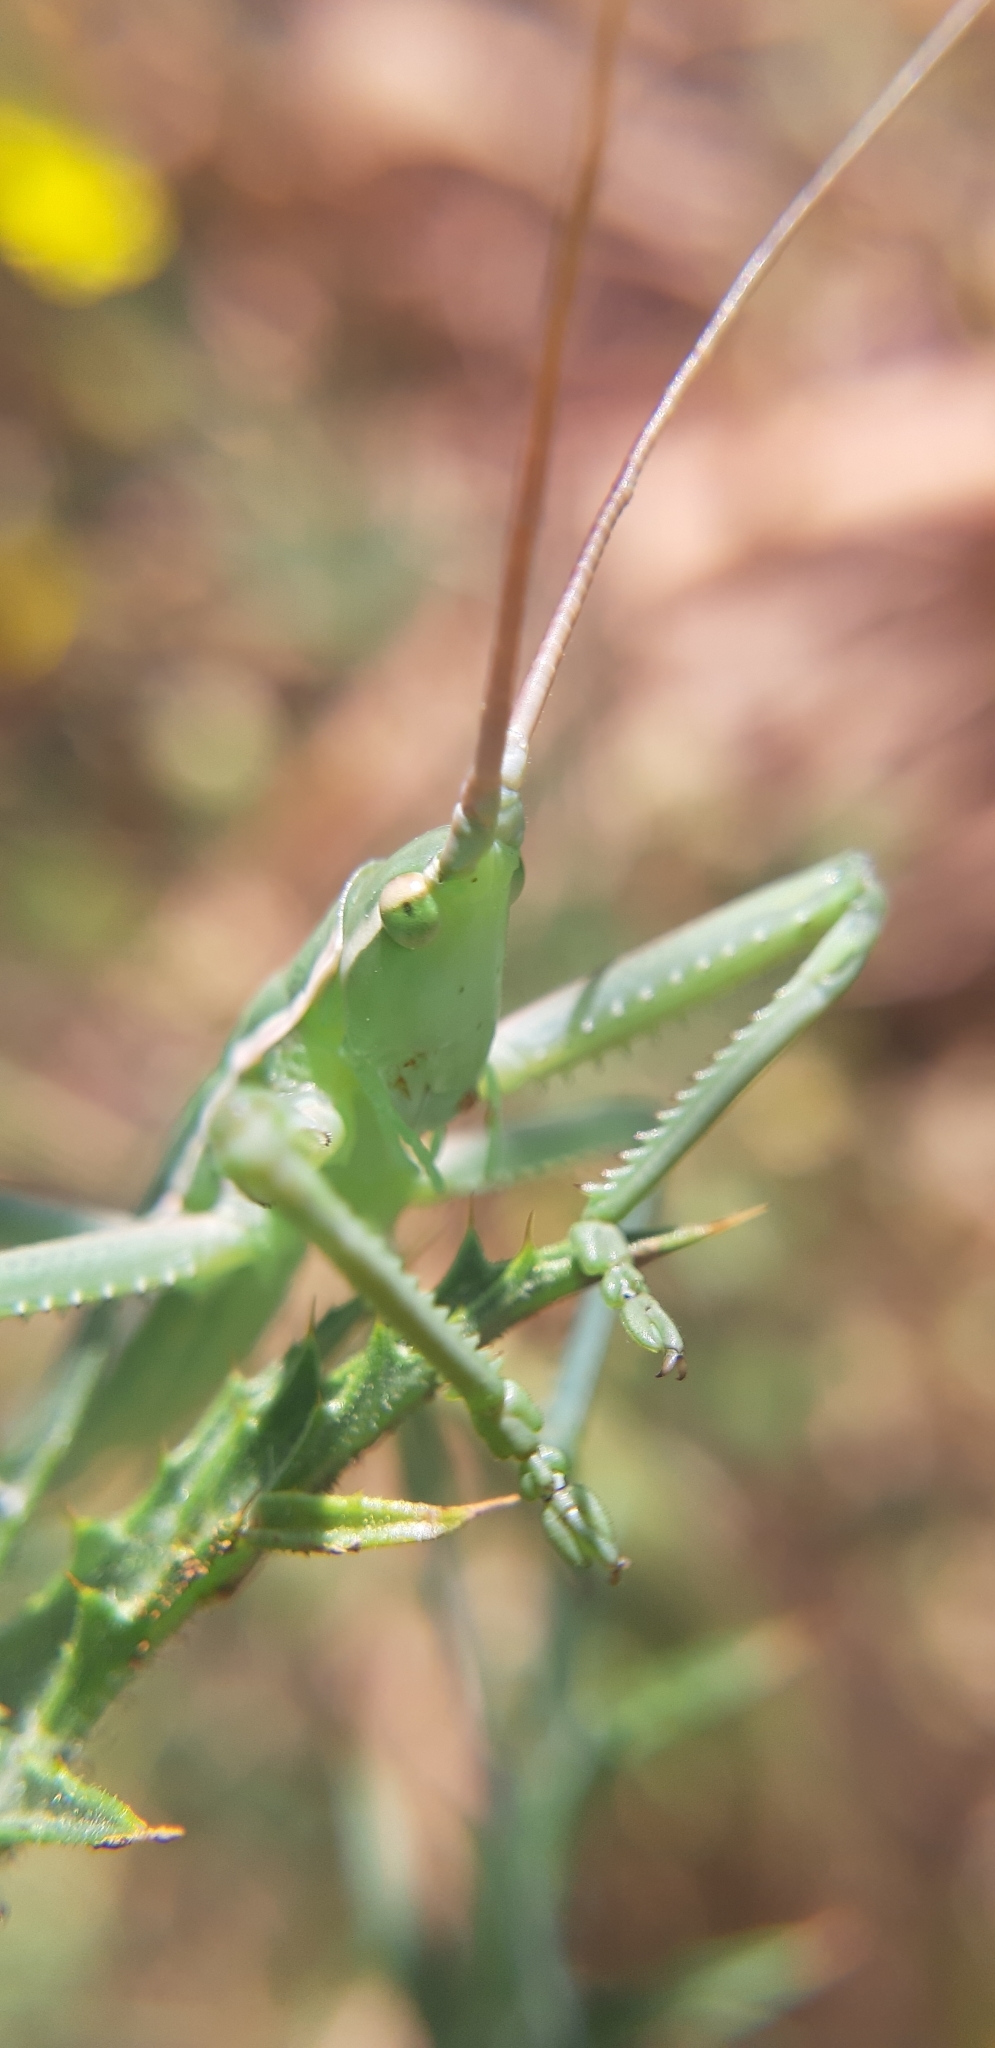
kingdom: Animalia
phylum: Arthropoda
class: Insecta
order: Orthoptera
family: Tettigoniidae
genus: Saga
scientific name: Saga pedo
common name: Common predatory bush-cricket
